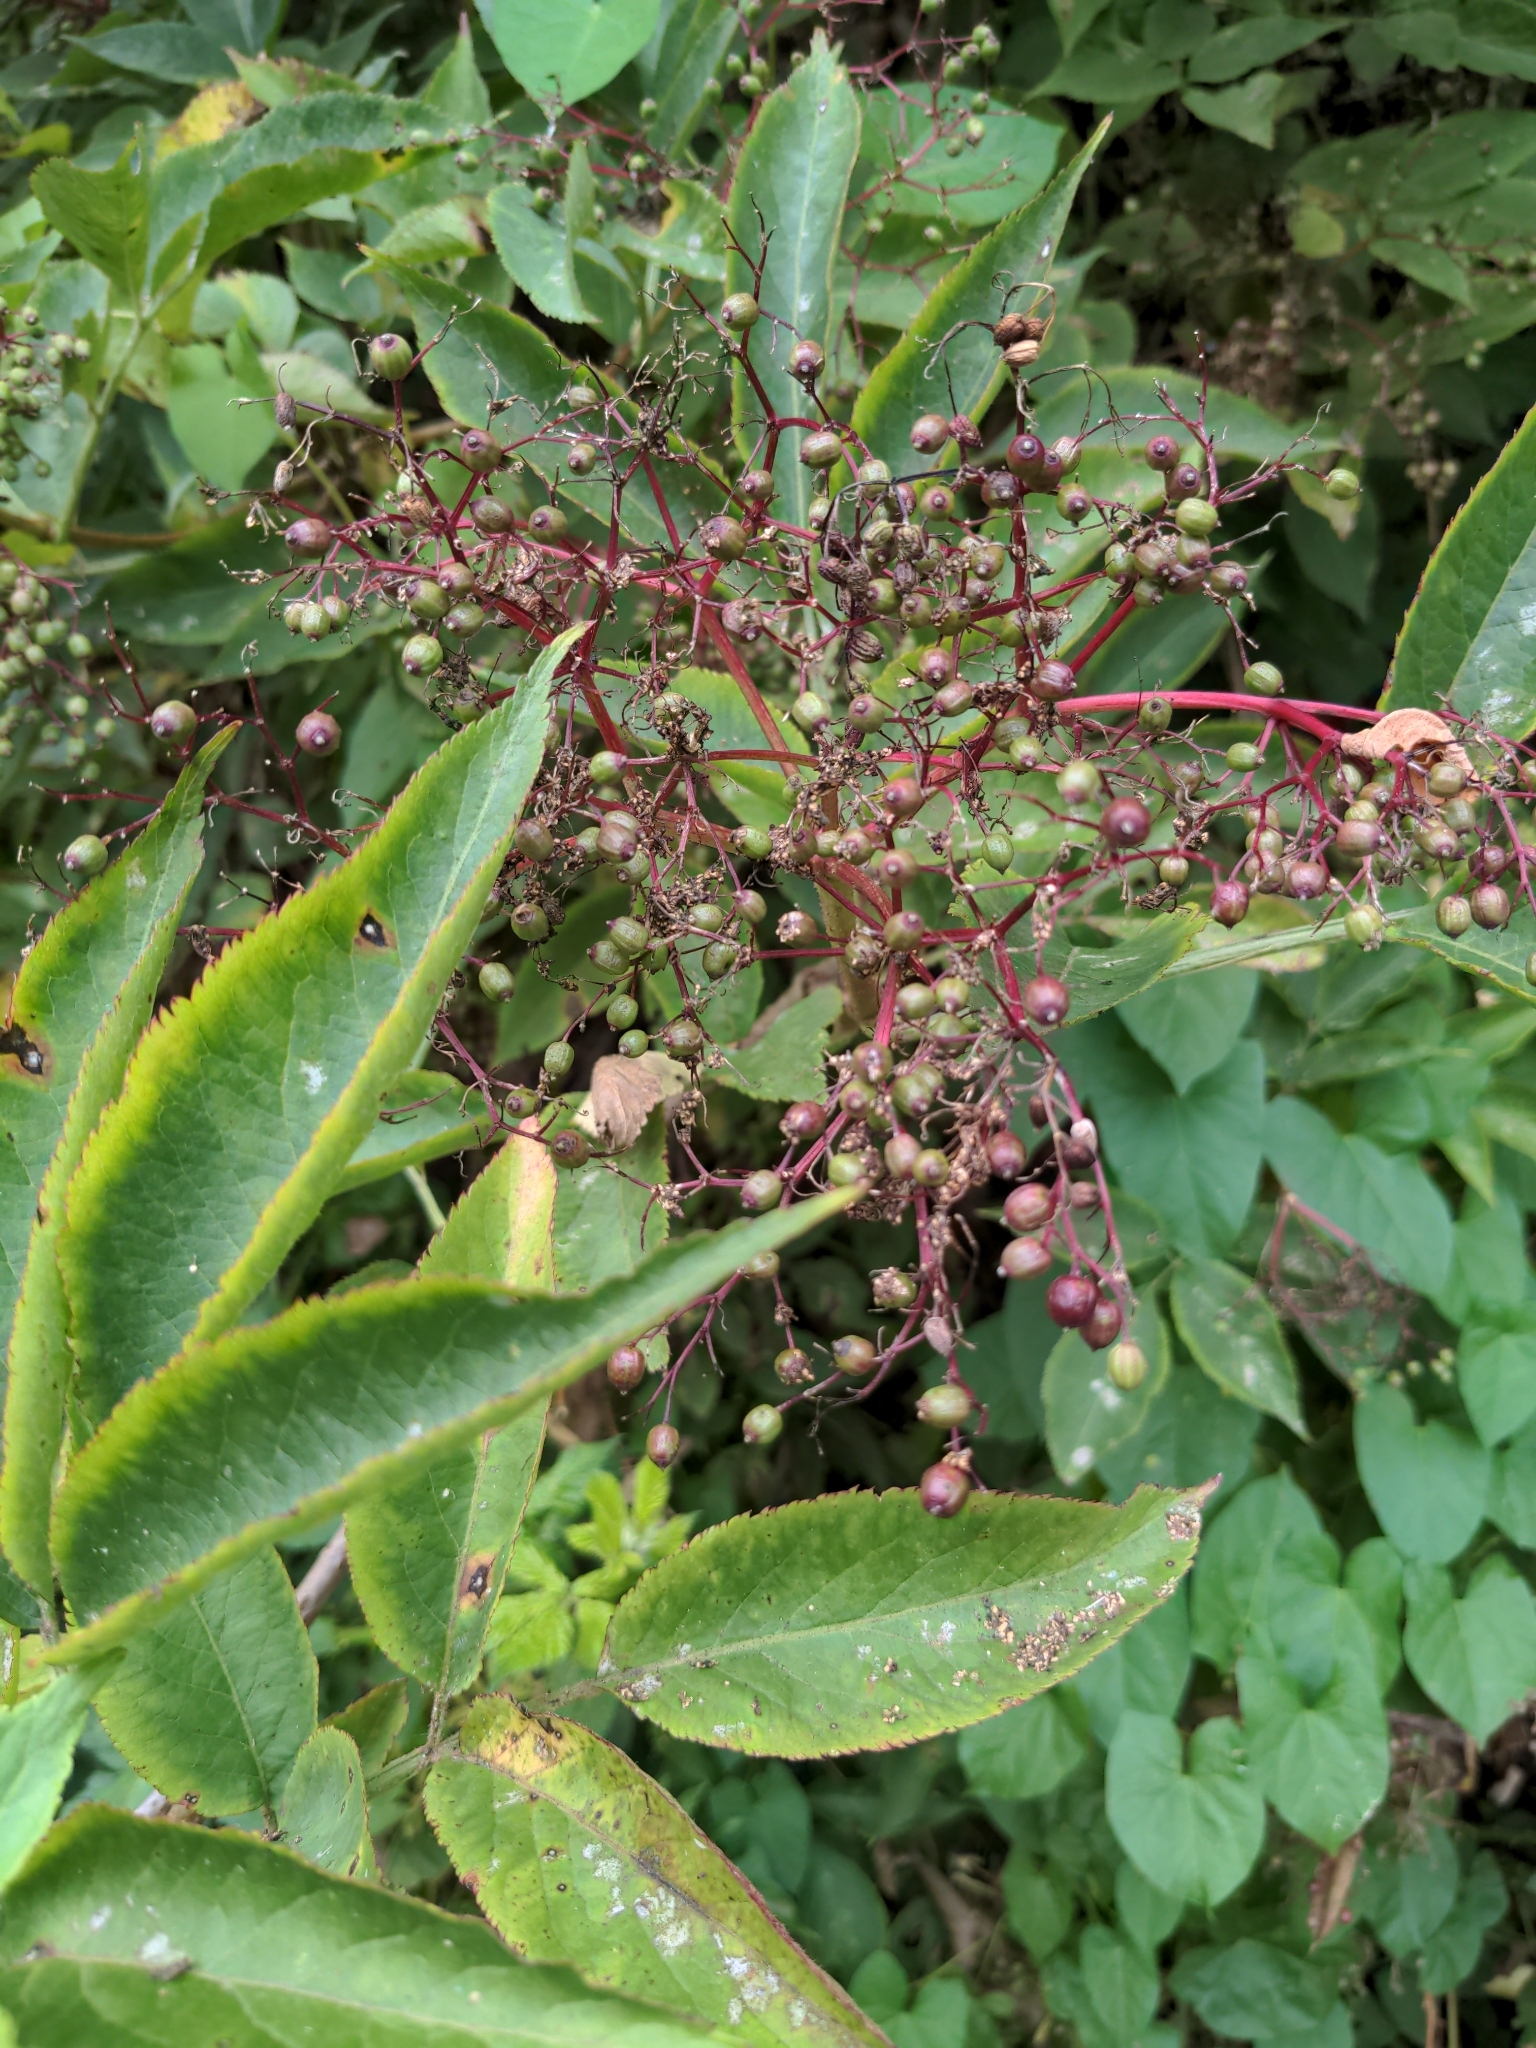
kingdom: Plantae
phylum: Tracheophyta
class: Magnoliopsida
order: Dipsacales
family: Viburnaceae
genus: Sambucus
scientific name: Sambucus nigra
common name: Elder
